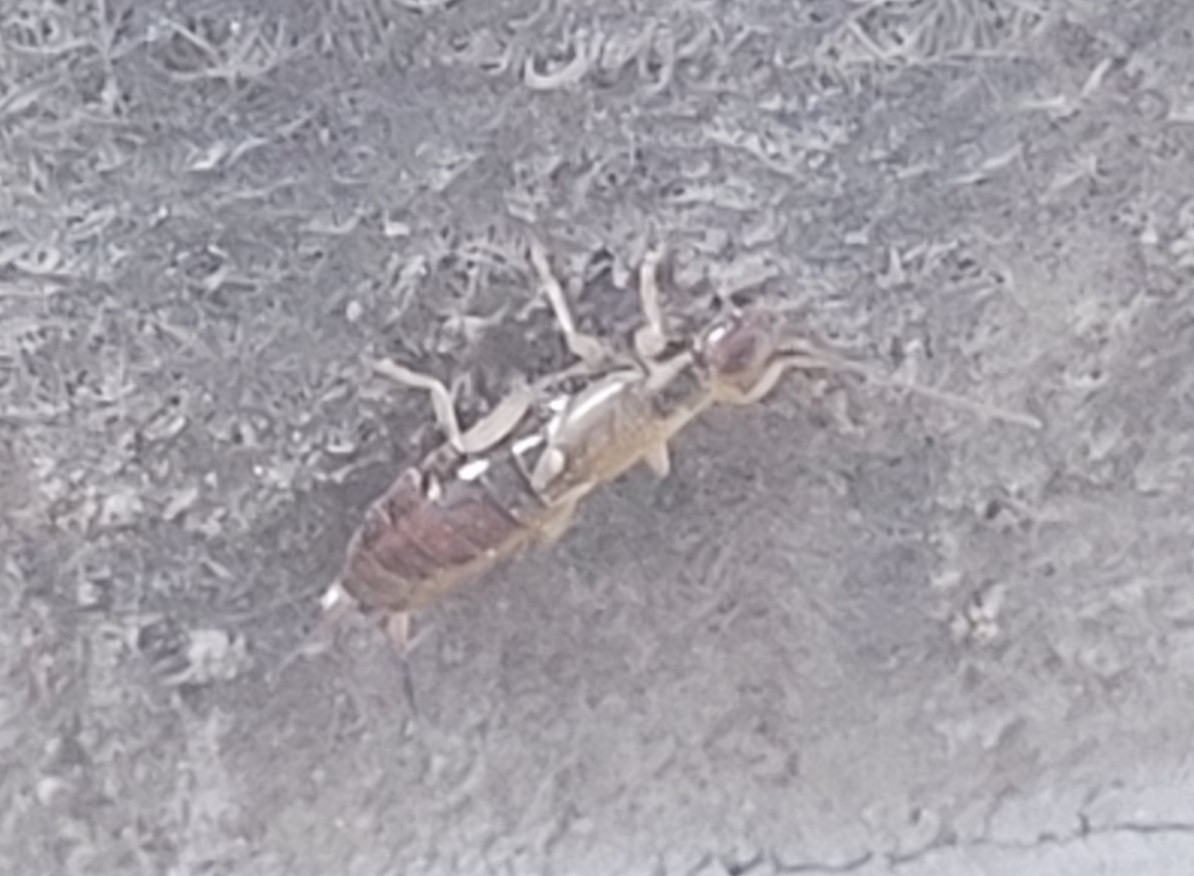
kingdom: Animalia
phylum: Arthropoda
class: Insecta
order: Dermaptera
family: Forficulidae
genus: Forficula
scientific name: Forficula
